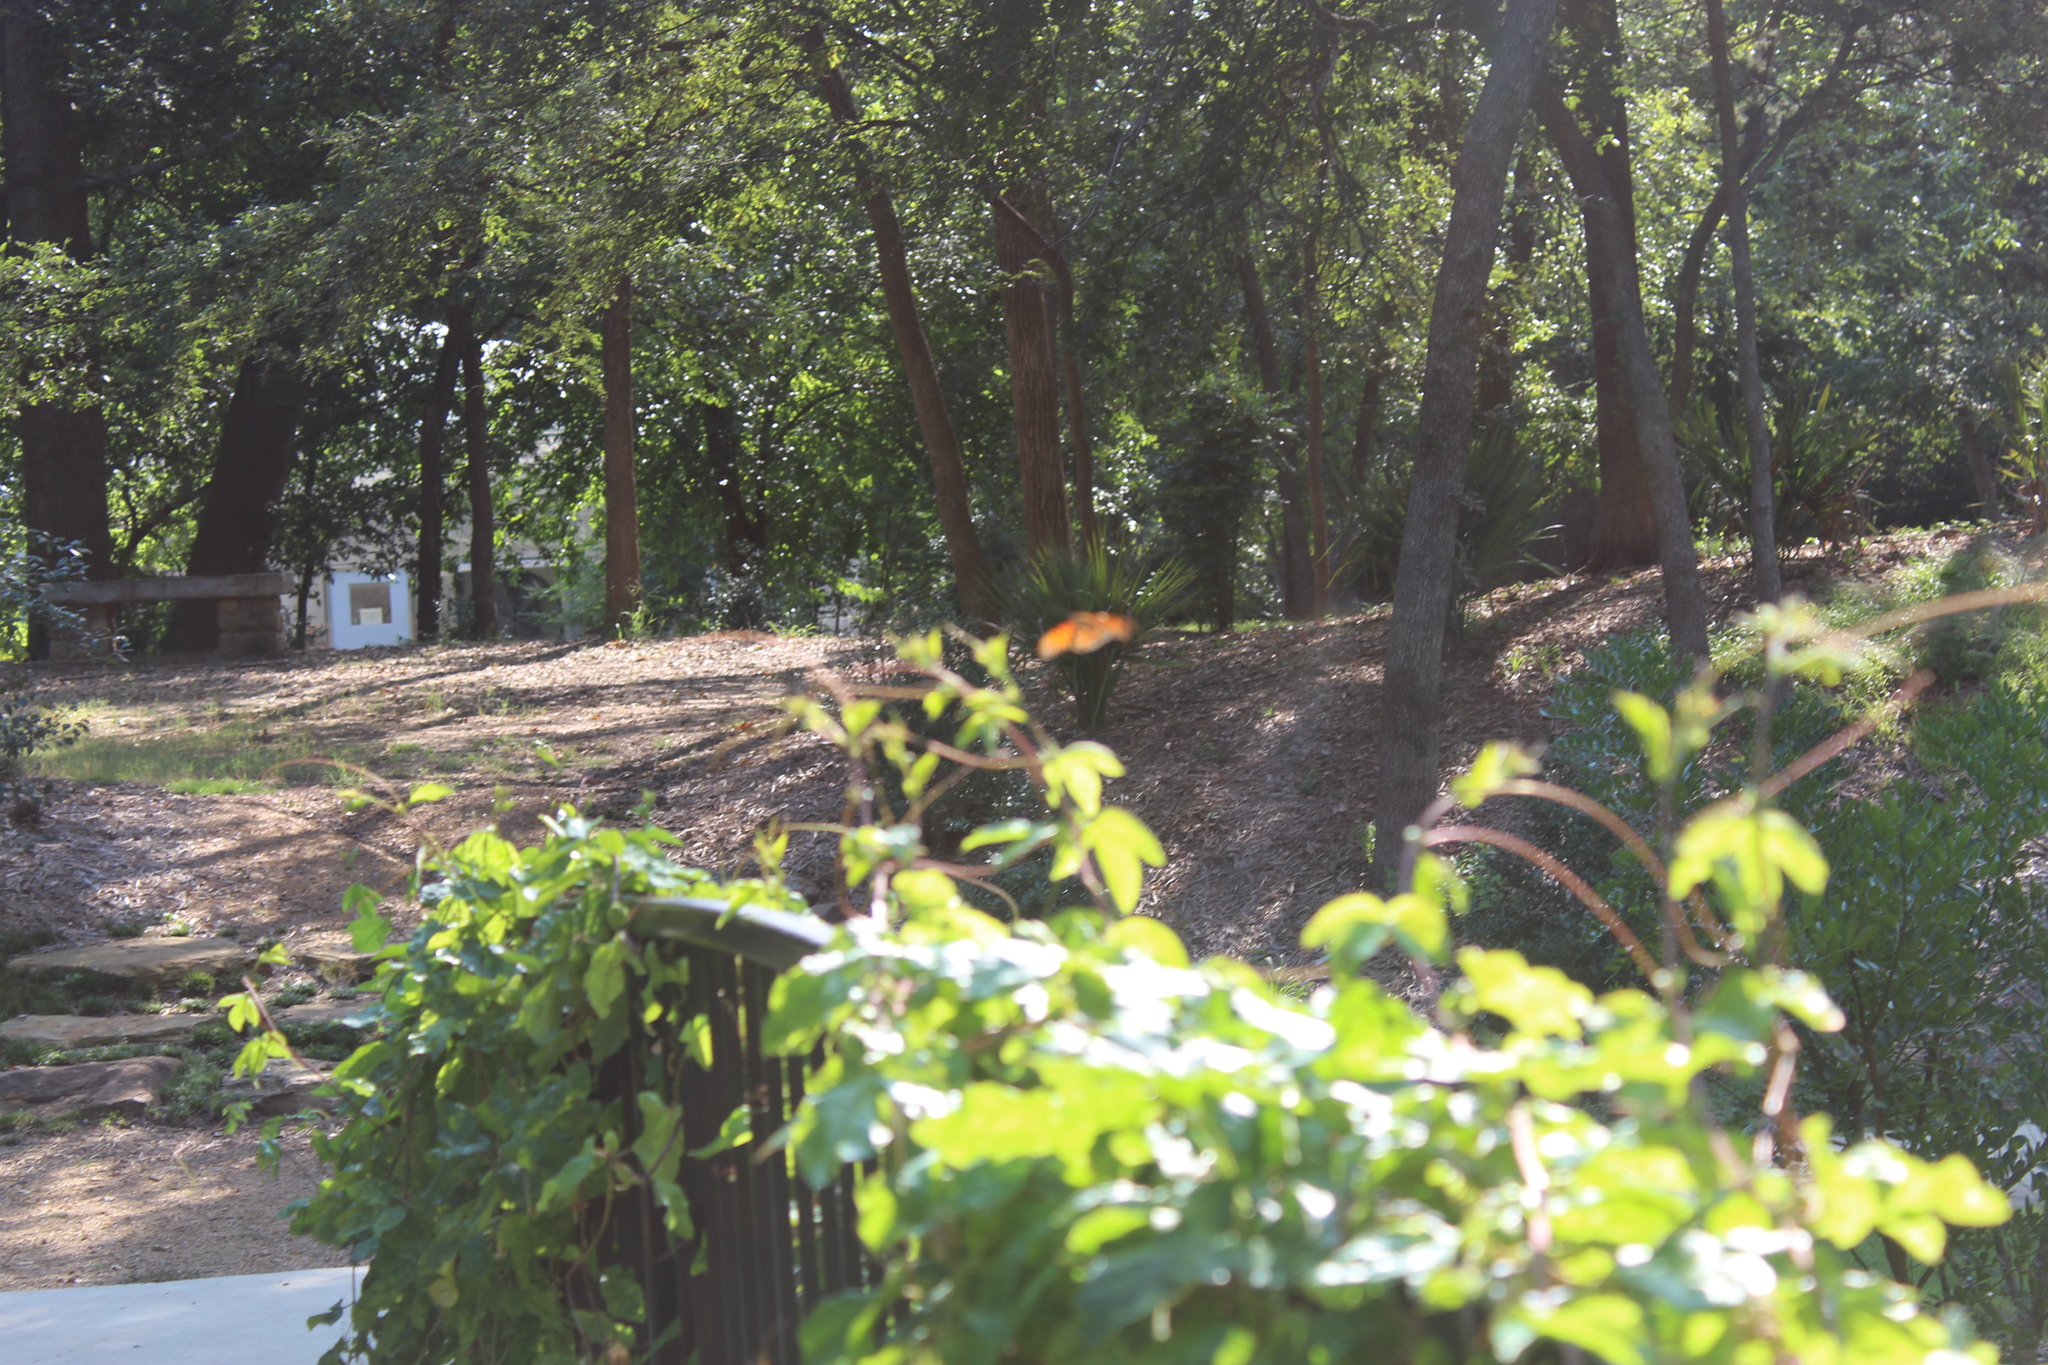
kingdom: Animalia
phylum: Arthropoda
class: Insecta
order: Lepidoptera
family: Nymphalidae
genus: Dione
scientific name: Dione vanillae
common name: Gulf fritillary
